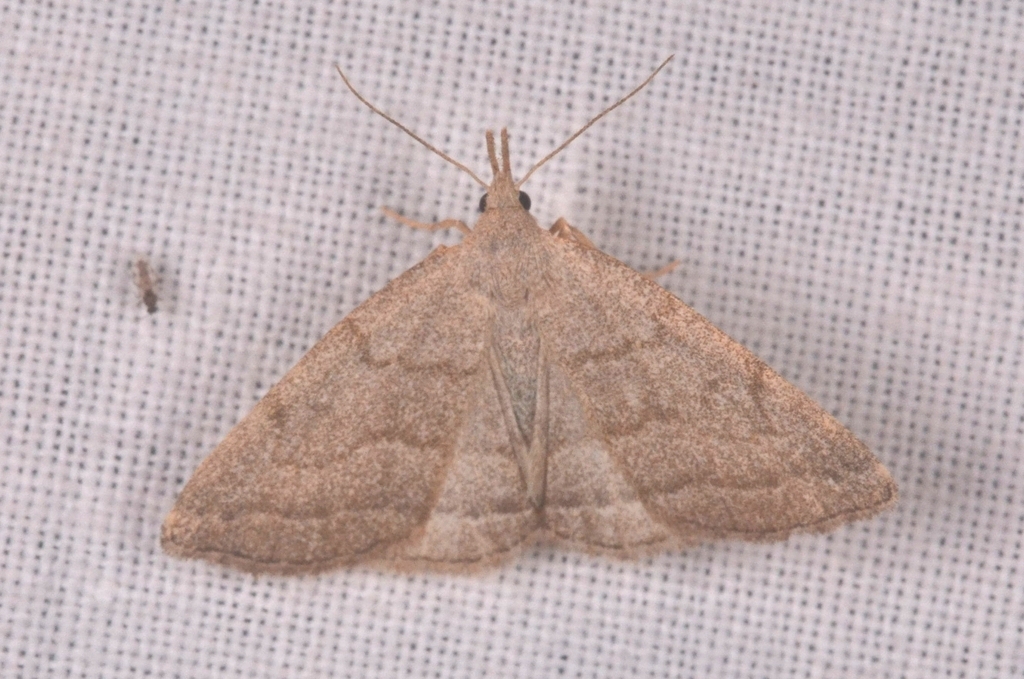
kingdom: Animalia
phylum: Arthropoda
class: Insecta
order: Lepidoptera
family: Erebidae
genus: Pechipogo
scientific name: Pechipogo strigilata
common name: Common fan-foot
